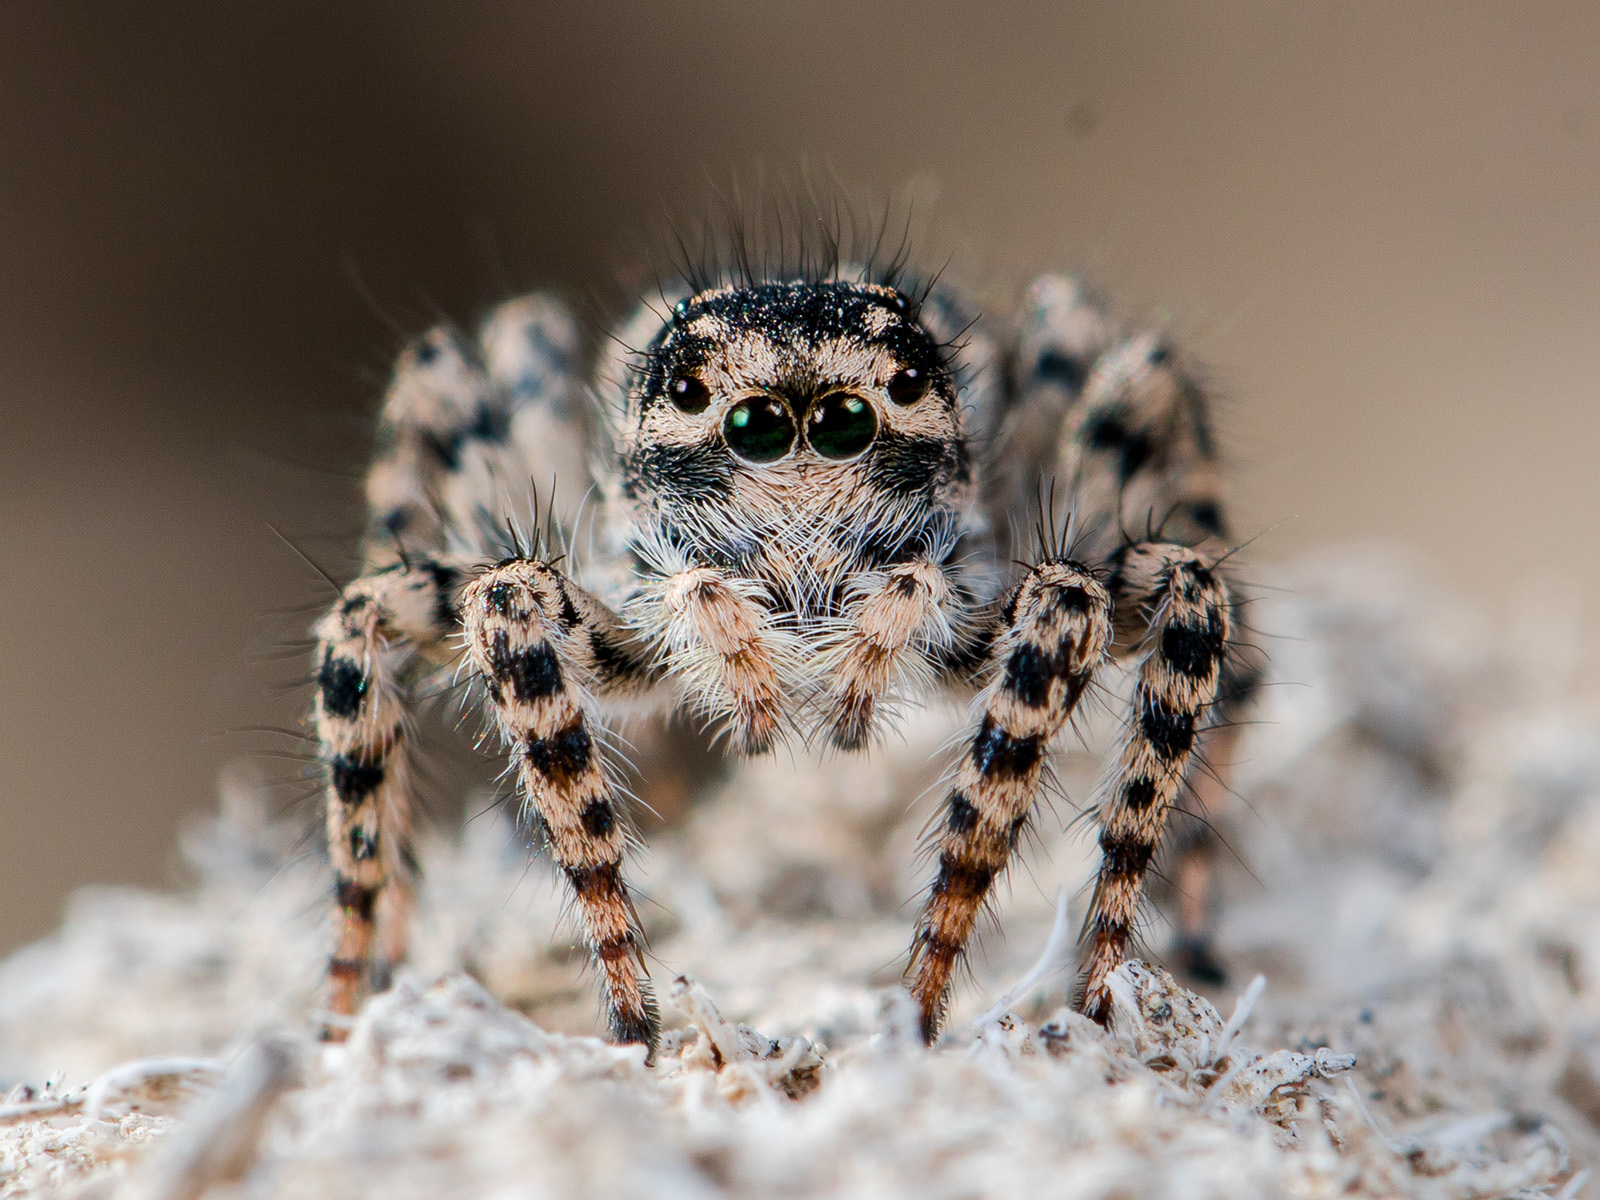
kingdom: Animalia
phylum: Arthropoda
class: Arachnida
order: Araneae
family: Salticidae
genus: Aelurillus
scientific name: Aelurillus dubatolovi
